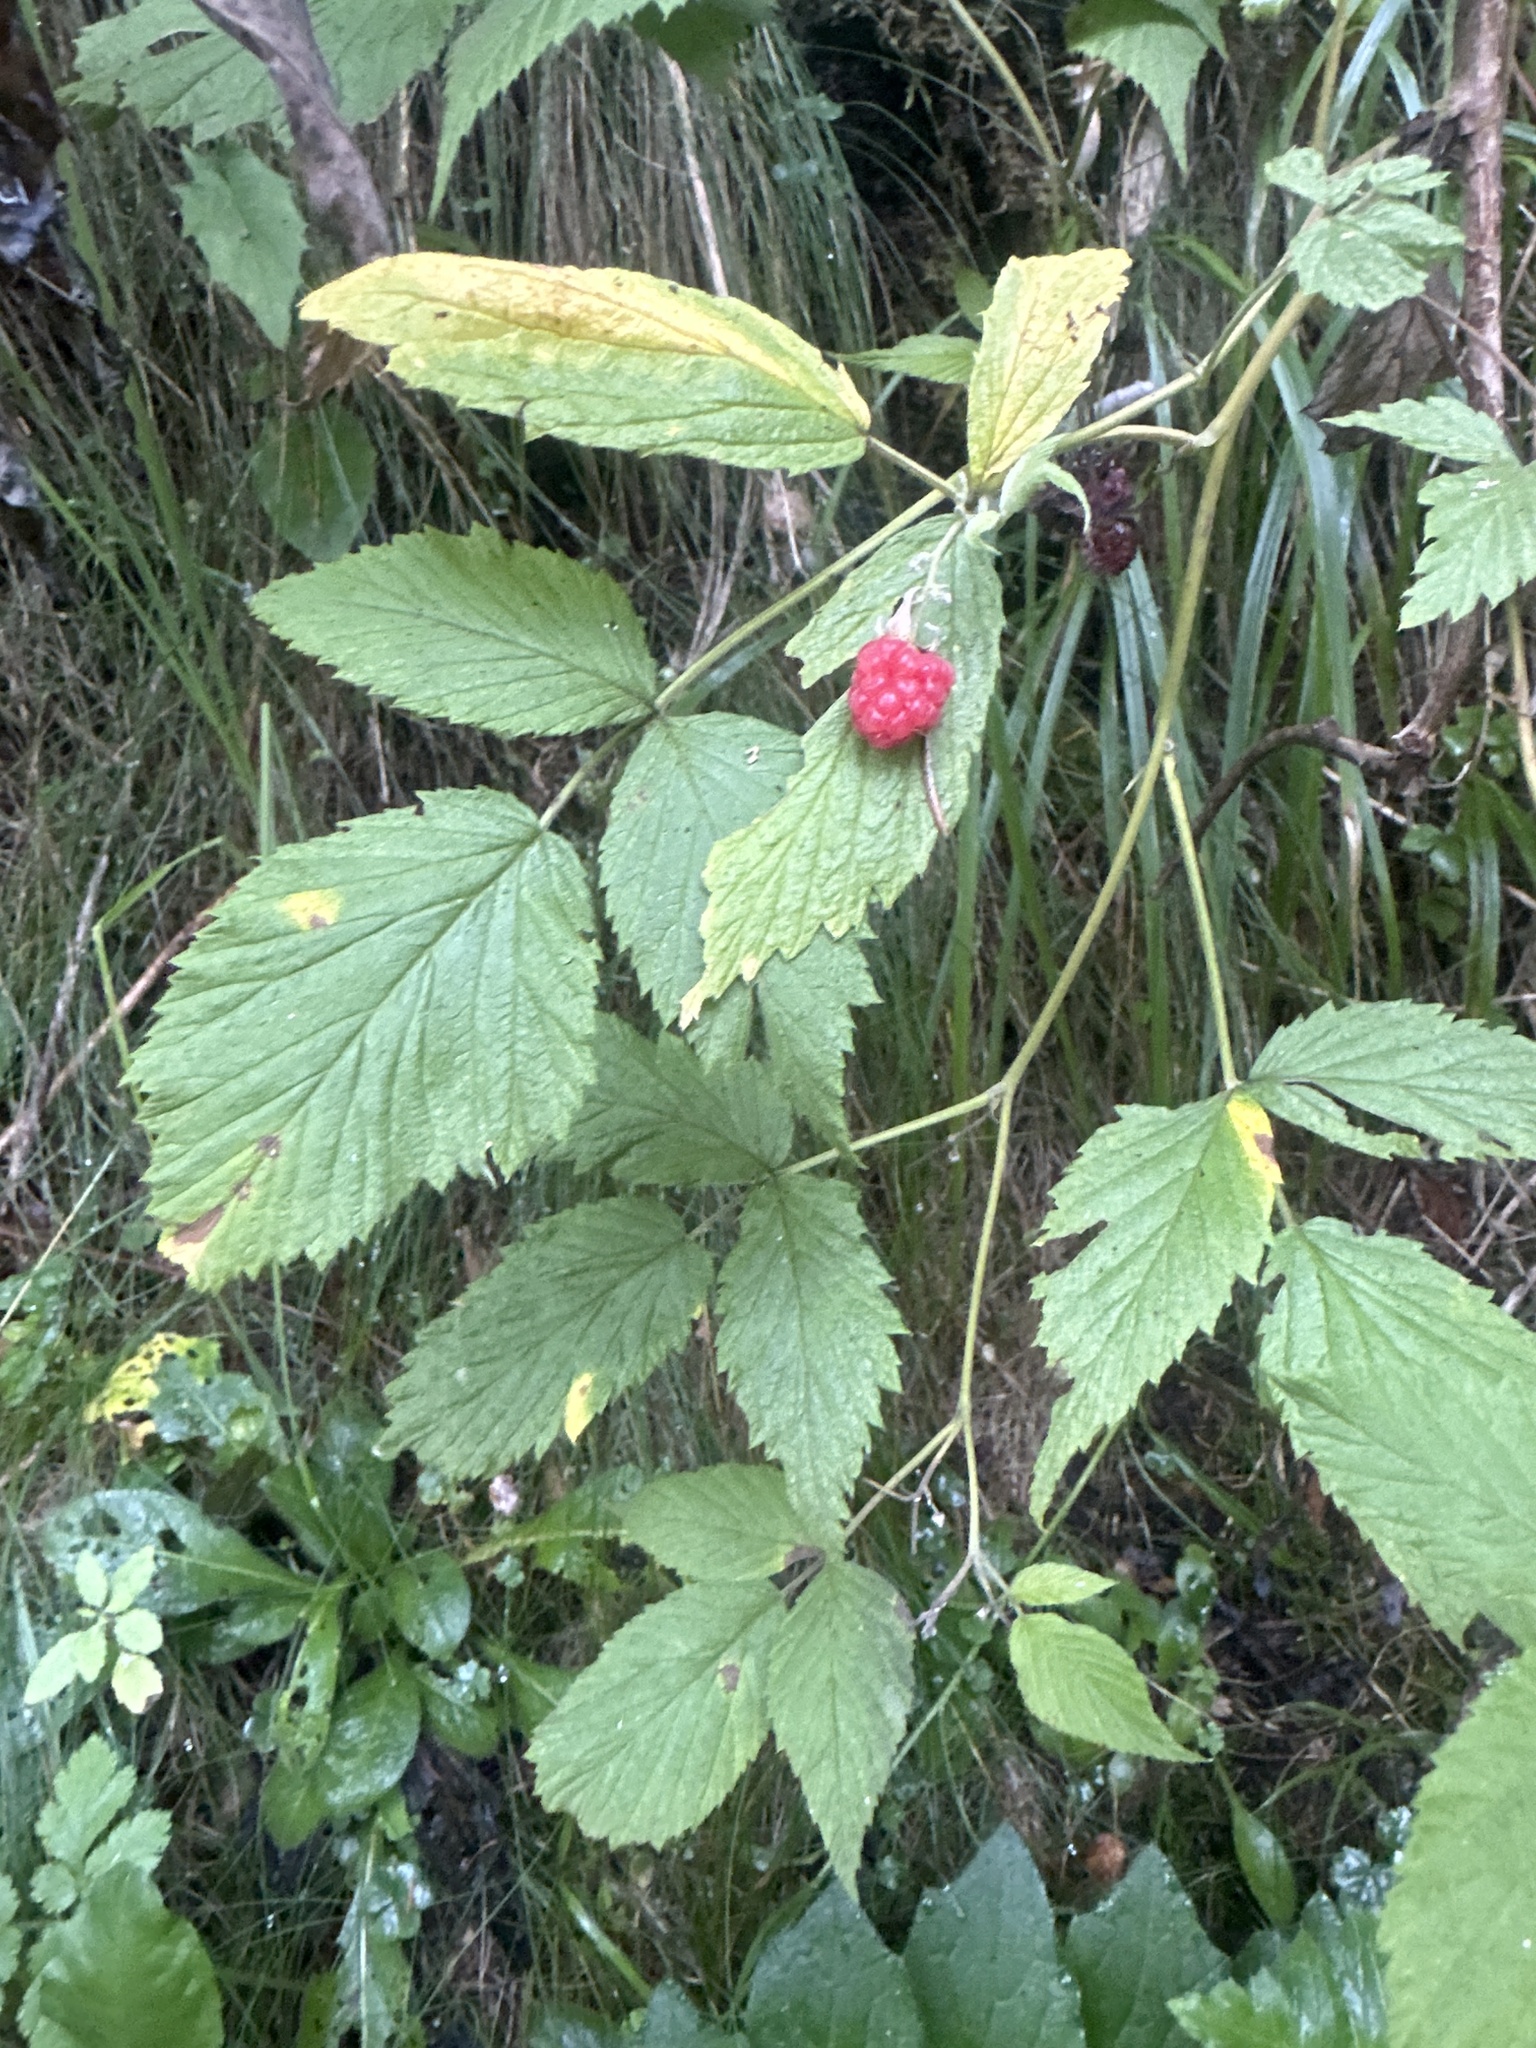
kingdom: Plantae
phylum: Tracheophyta
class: Magnoliopsida
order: Rosales
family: Rosaceae
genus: Rubus
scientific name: Rubus idaeus
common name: Raspberry
